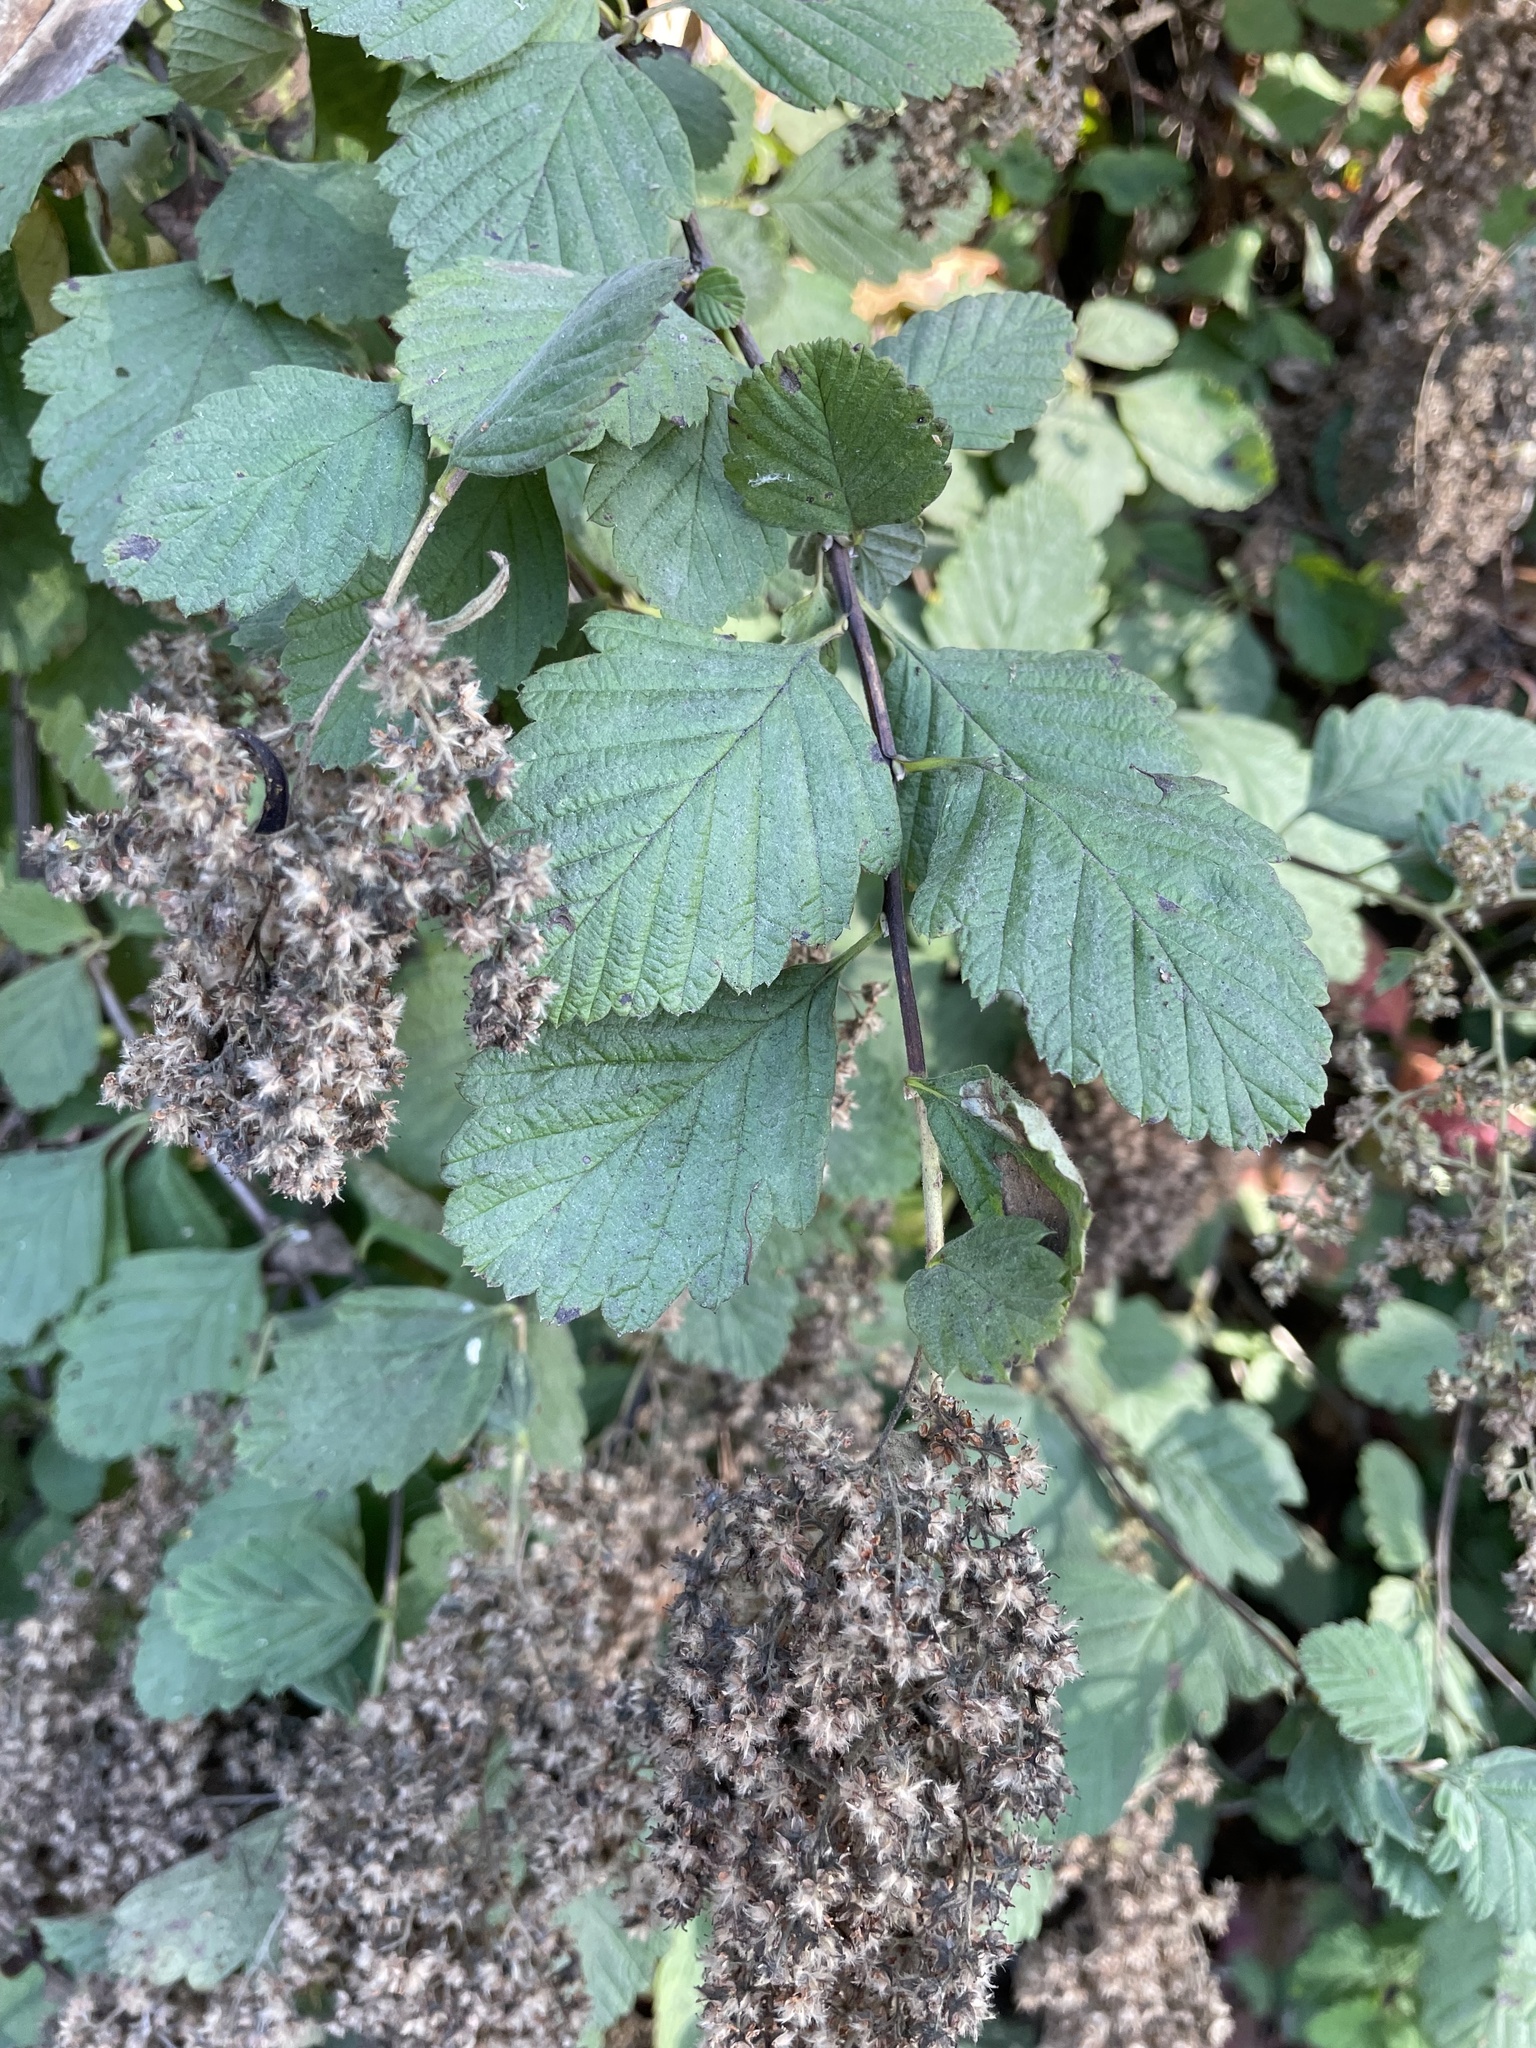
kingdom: Plantae
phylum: Tracheophyta
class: Magnoliopsida
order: Rosales
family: Rosaceae
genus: Holodiscus
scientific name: Holodiscus discolor
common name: Oceanspray
